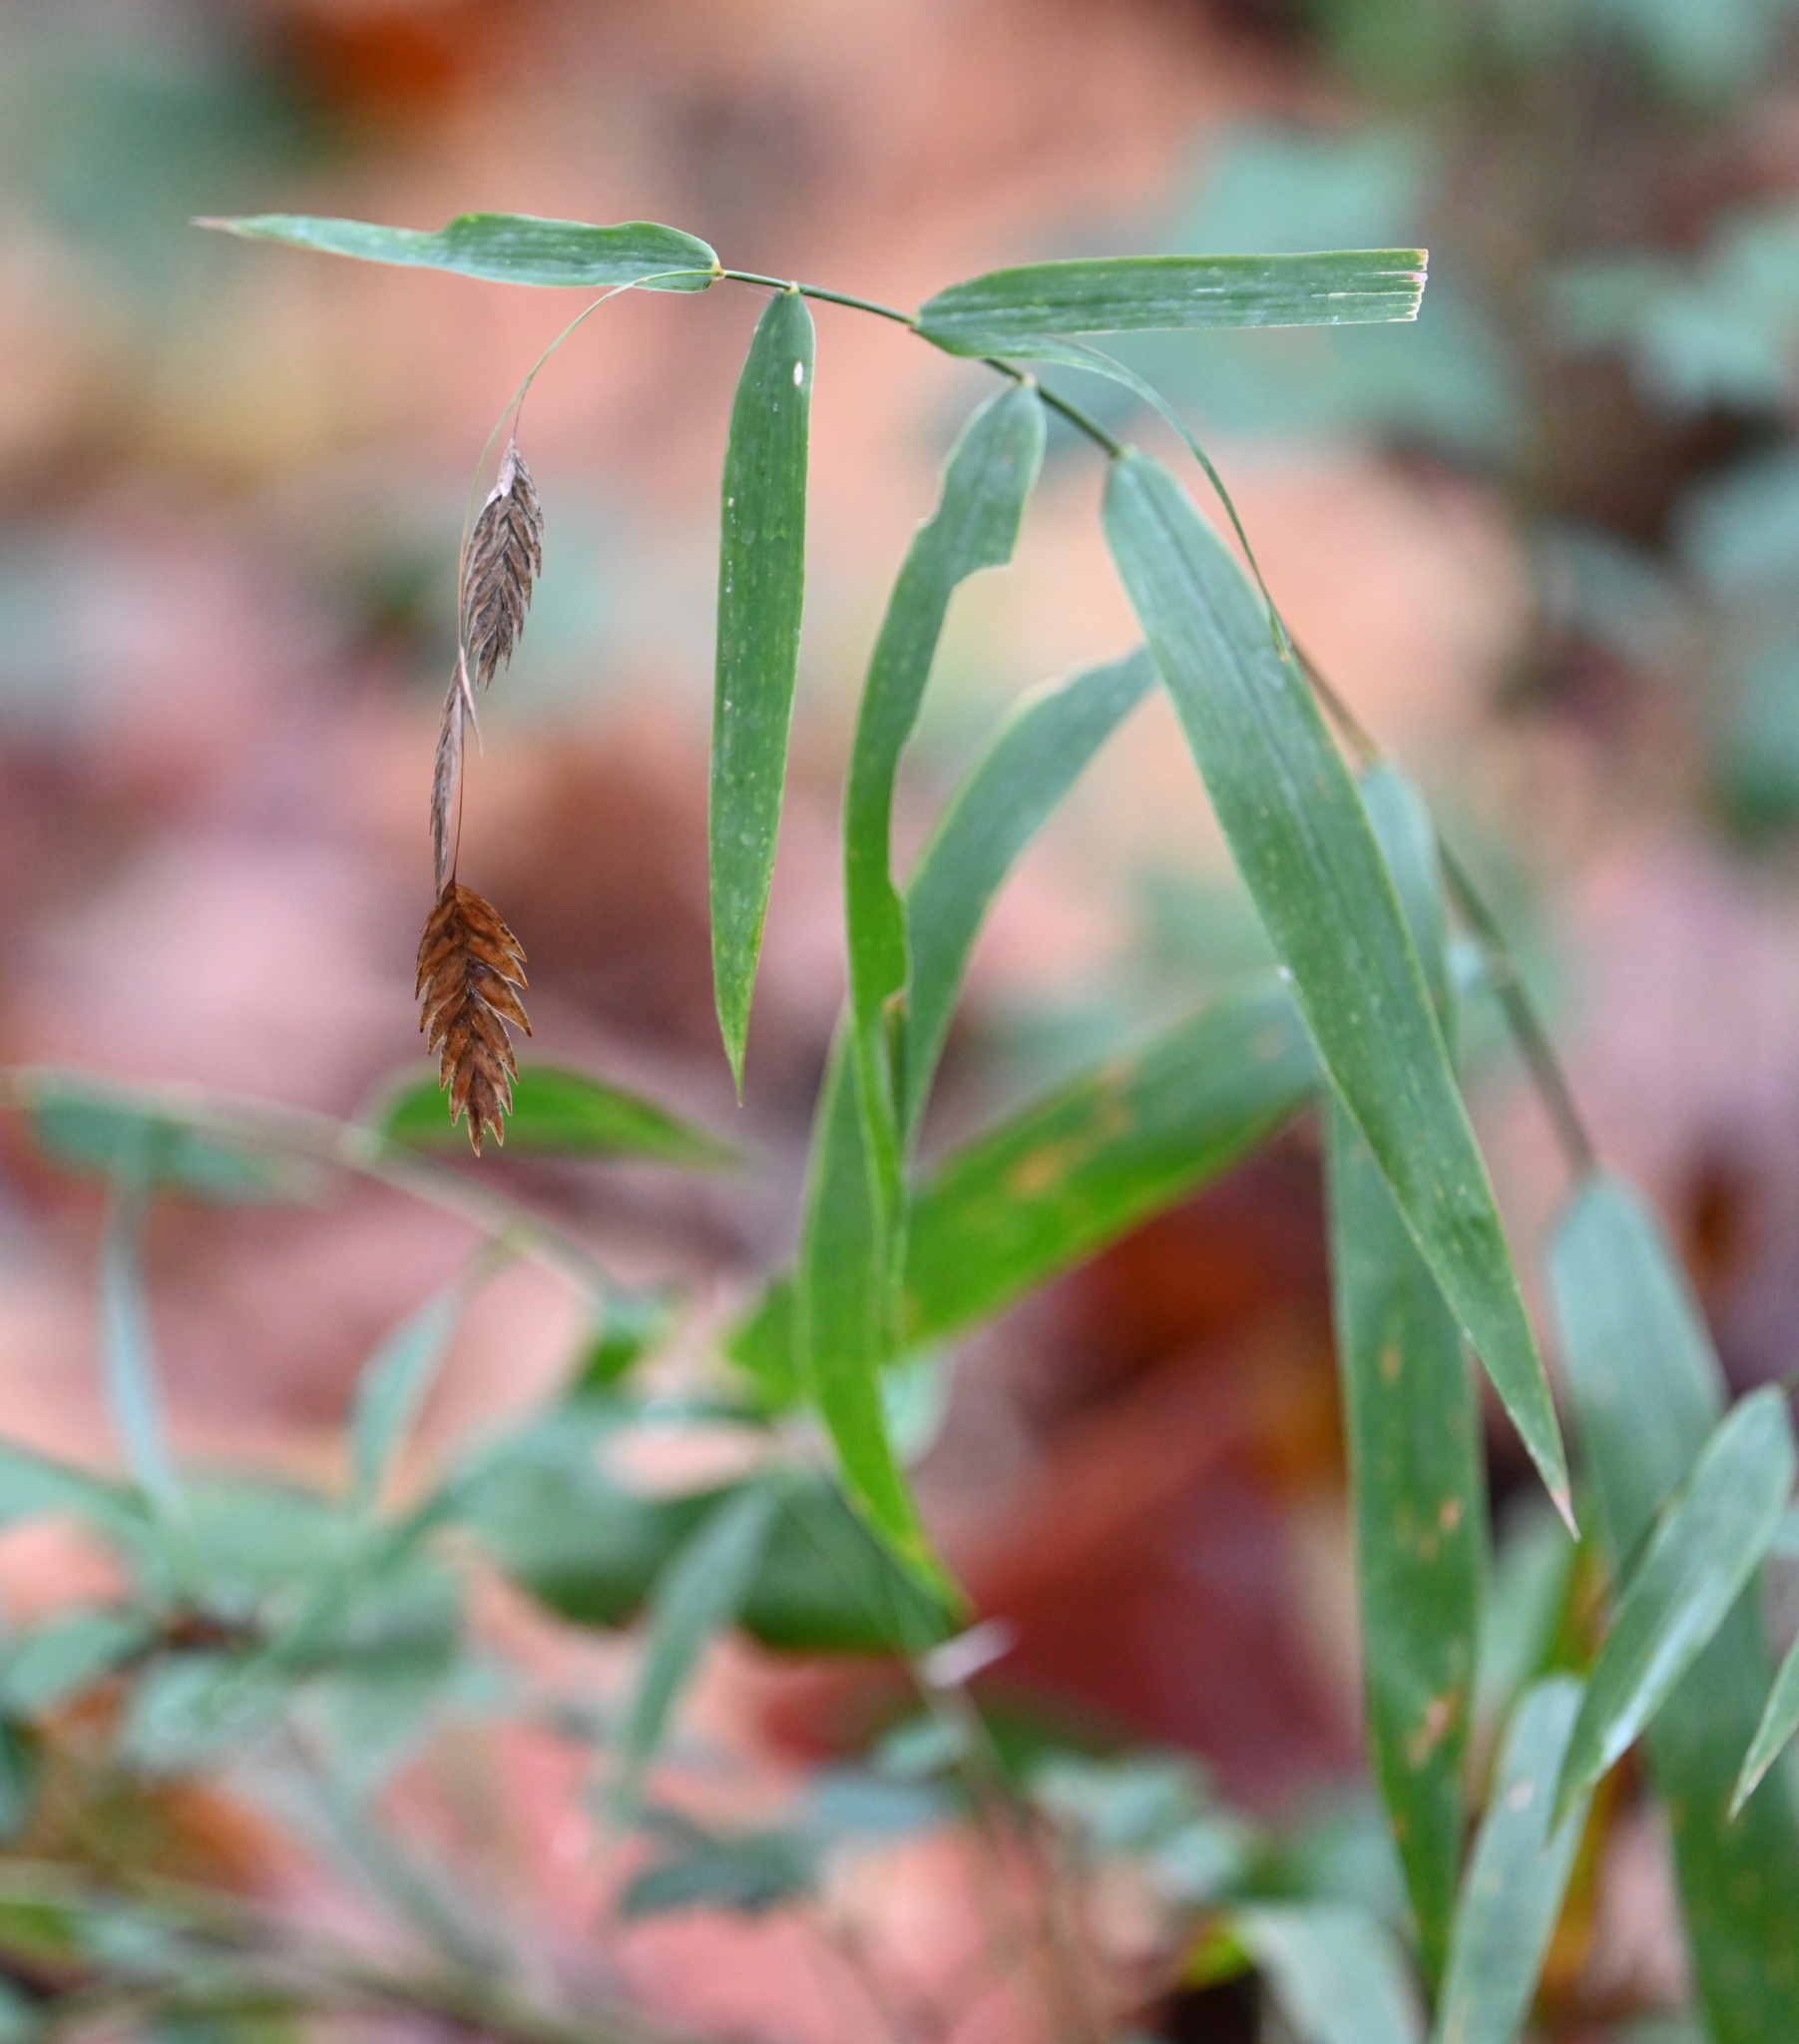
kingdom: Plantae
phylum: Tracheophyta
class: Liliopsida
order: Poales
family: Poaceae
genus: Chasmanthium
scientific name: Chasmanthium latifolium
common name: Broad-leaved chasmanthium
